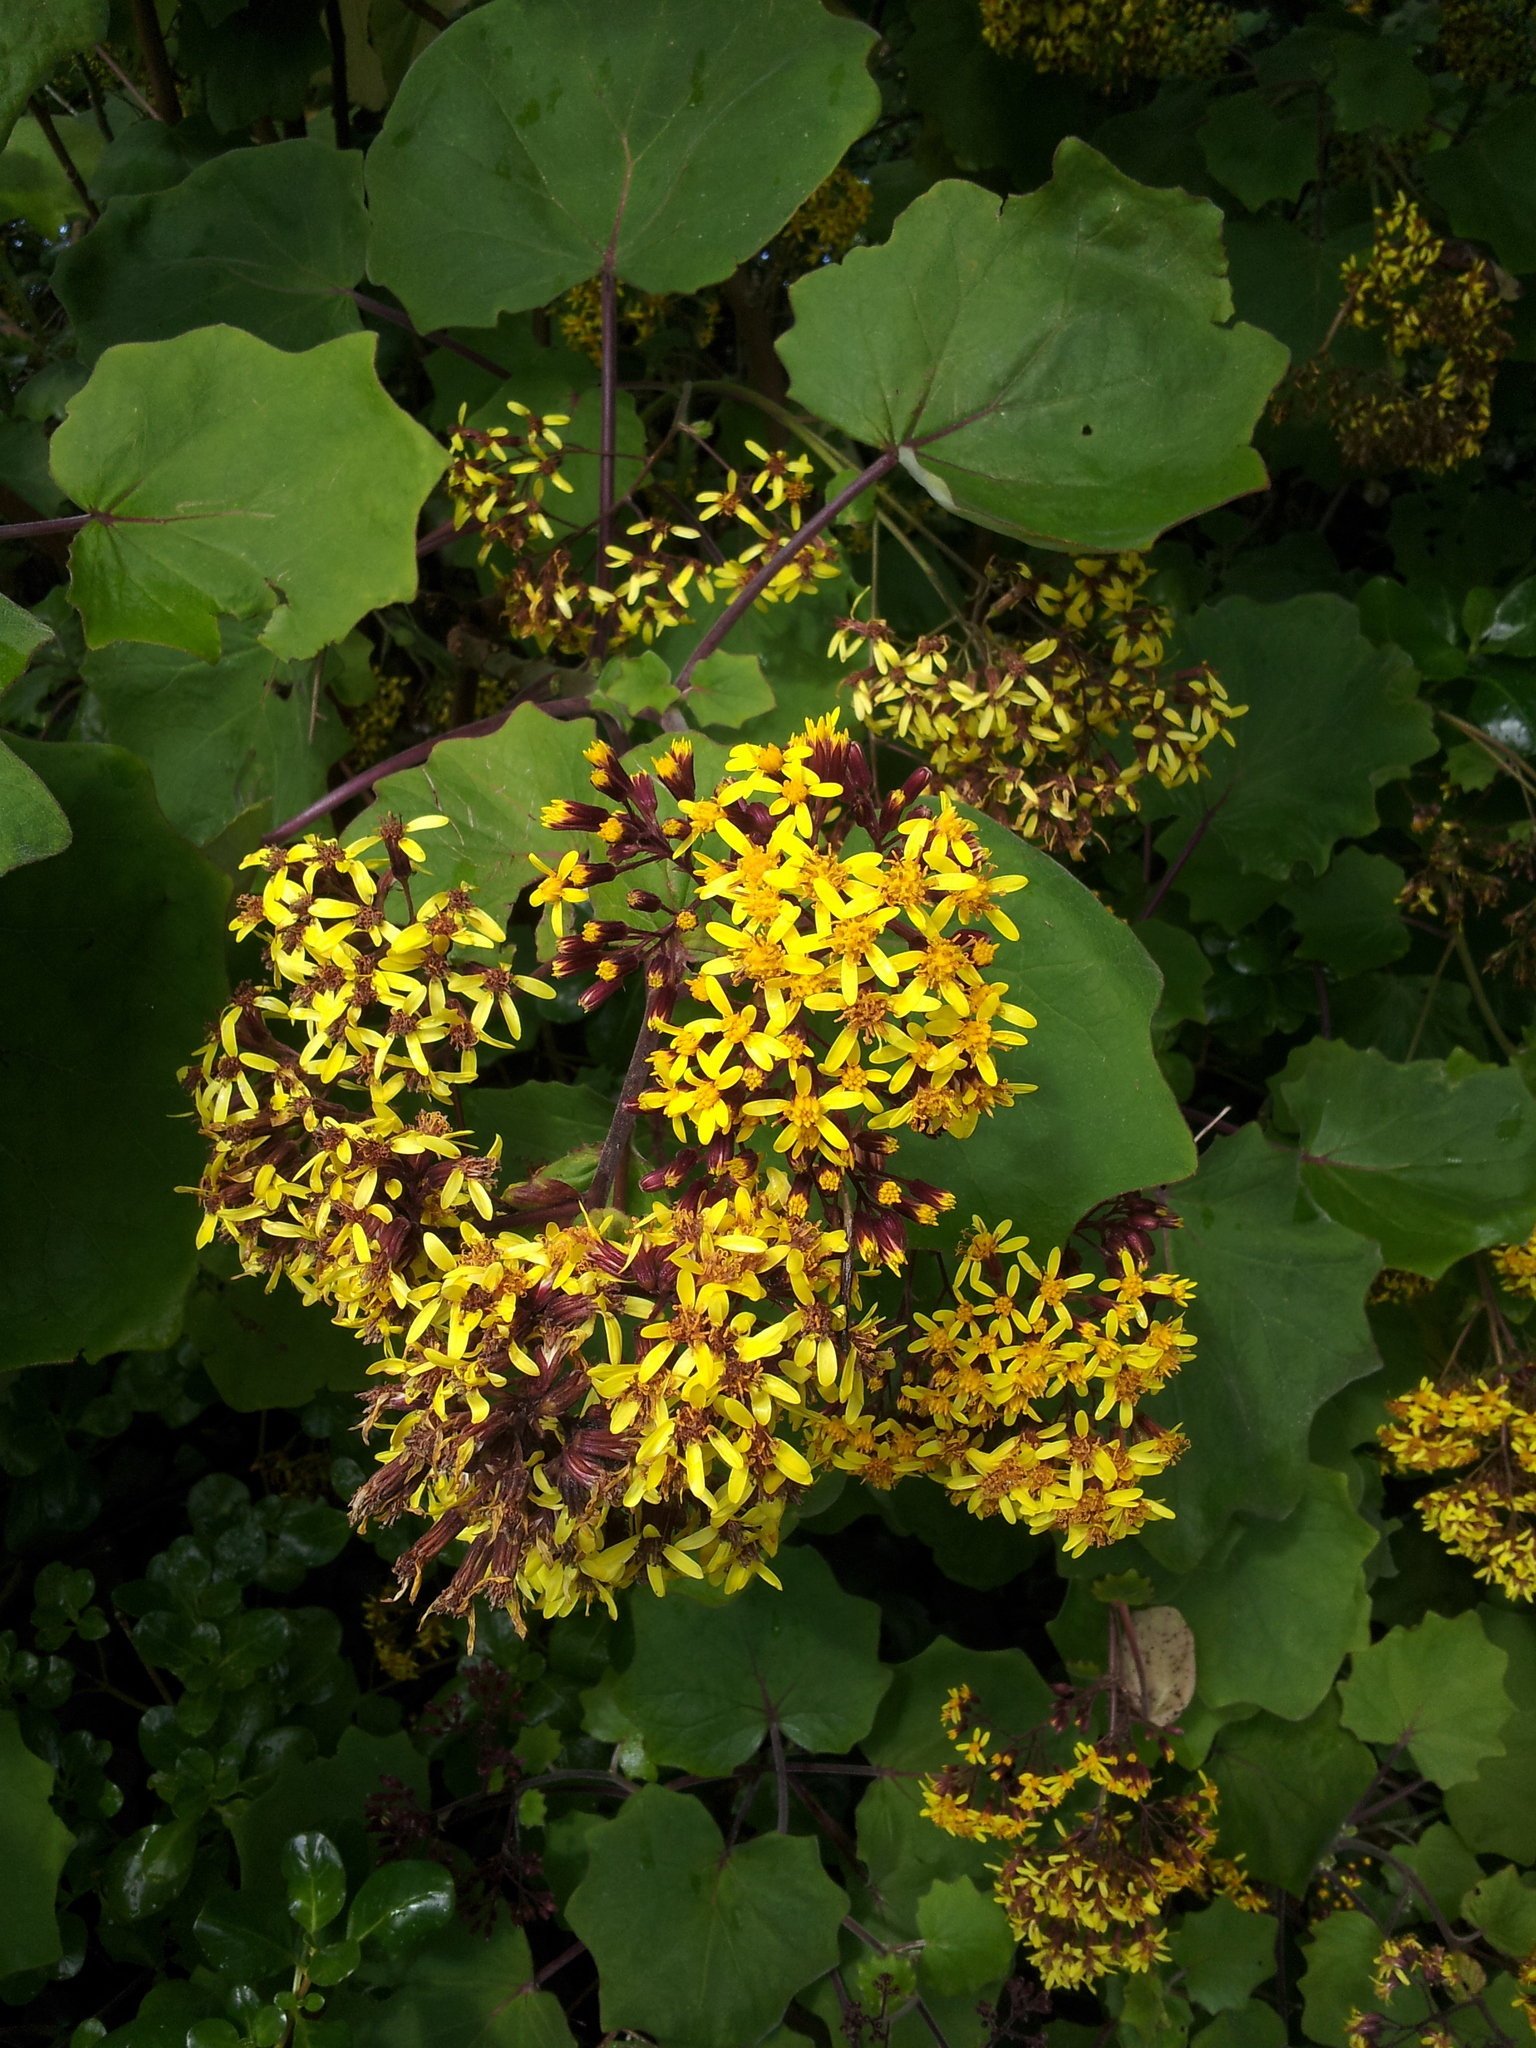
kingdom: Plantae
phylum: Tracheophyta
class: Magnoliopsida
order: Asterales
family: Asteraceae
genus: Roldana
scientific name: Roldana petasitis
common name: California-geranium
